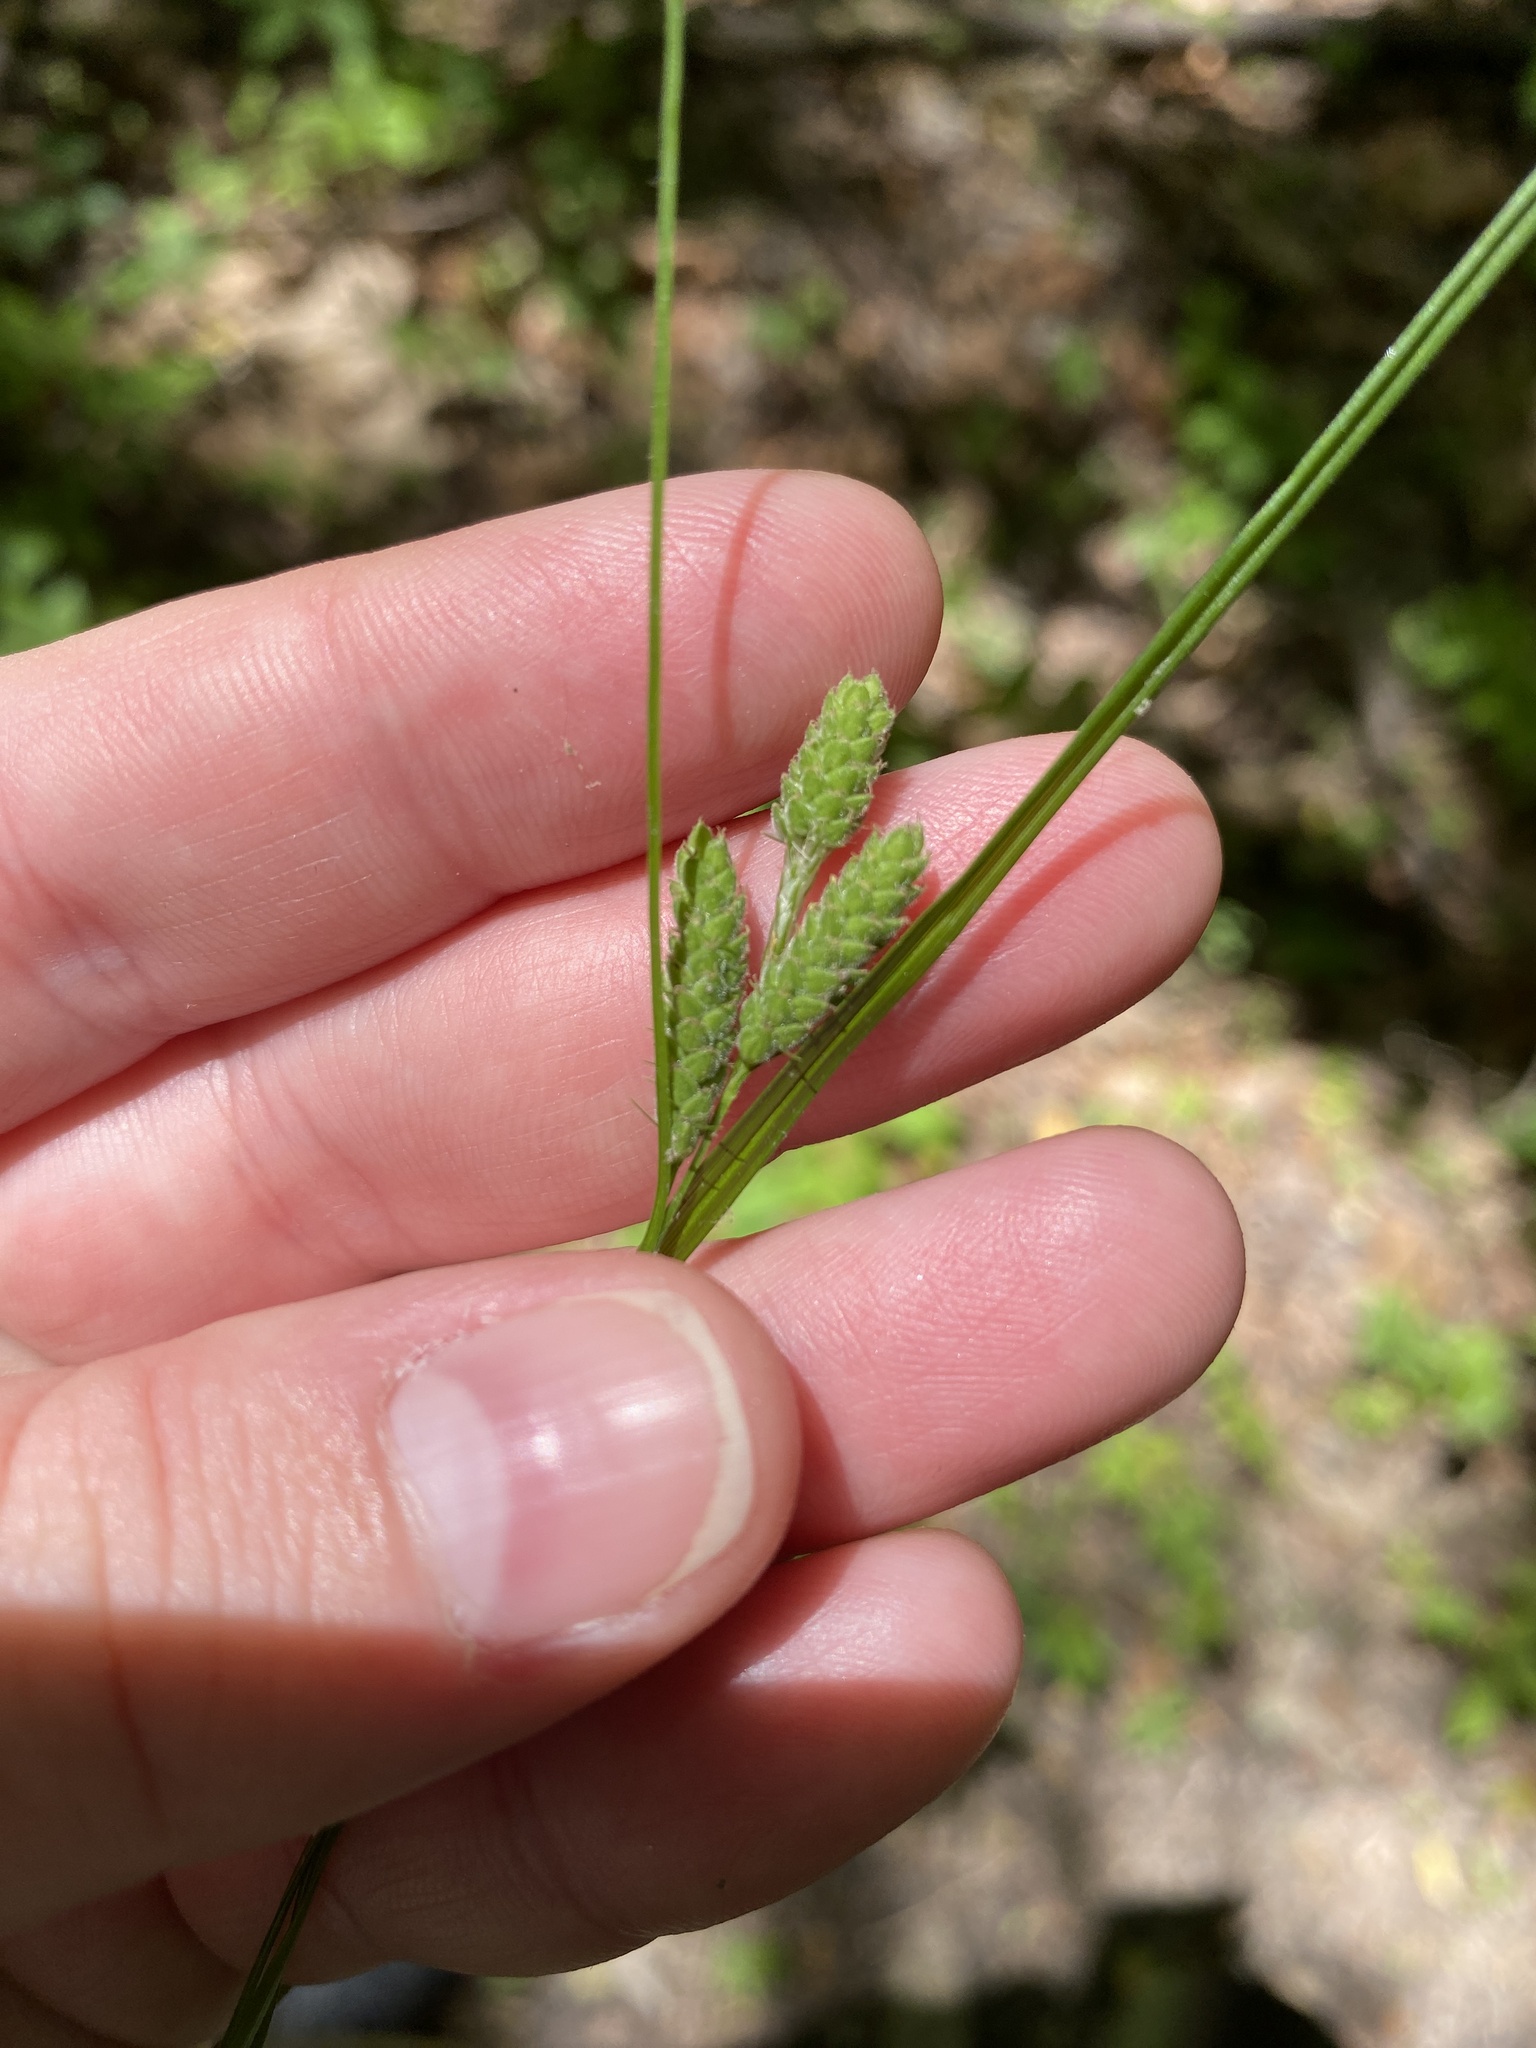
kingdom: Plantae
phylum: Tracheophyta
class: Liliopsida
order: Poales
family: Cyperaceae
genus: Carex
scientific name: Carex swanii
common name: Downy green sedge
